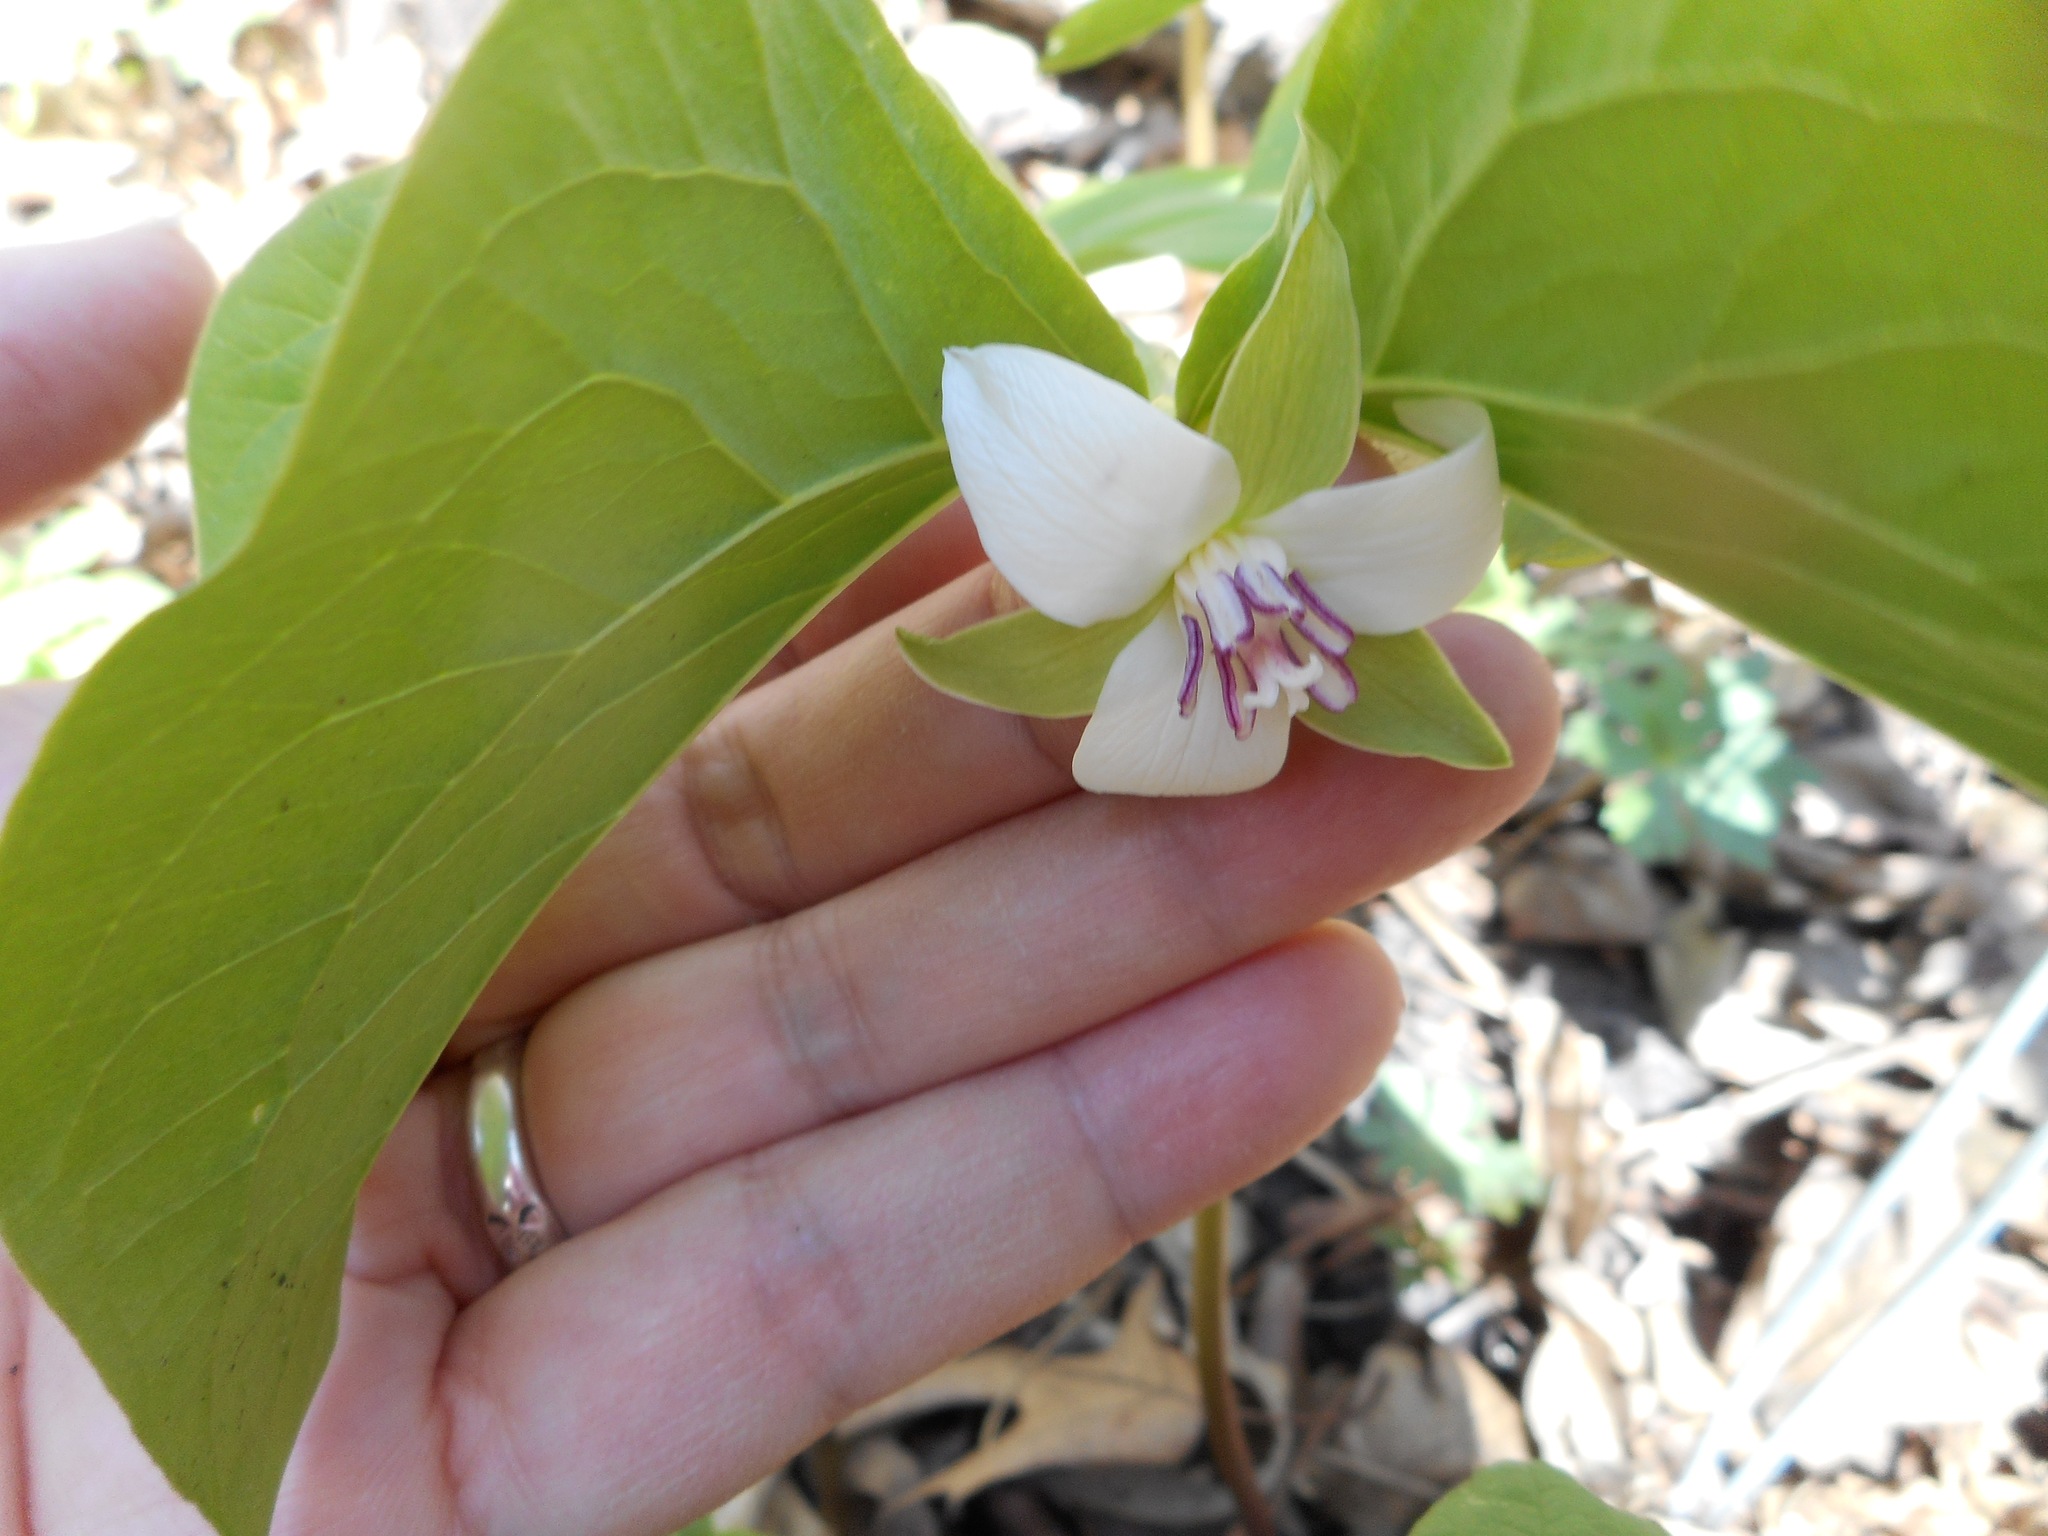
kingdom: Plantae
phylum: Tracheophyta
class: Liliopsida
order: Liliales
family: Melanthiaceae
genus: Trillium
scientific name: Trillium cernuum
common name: Nodding trillium
